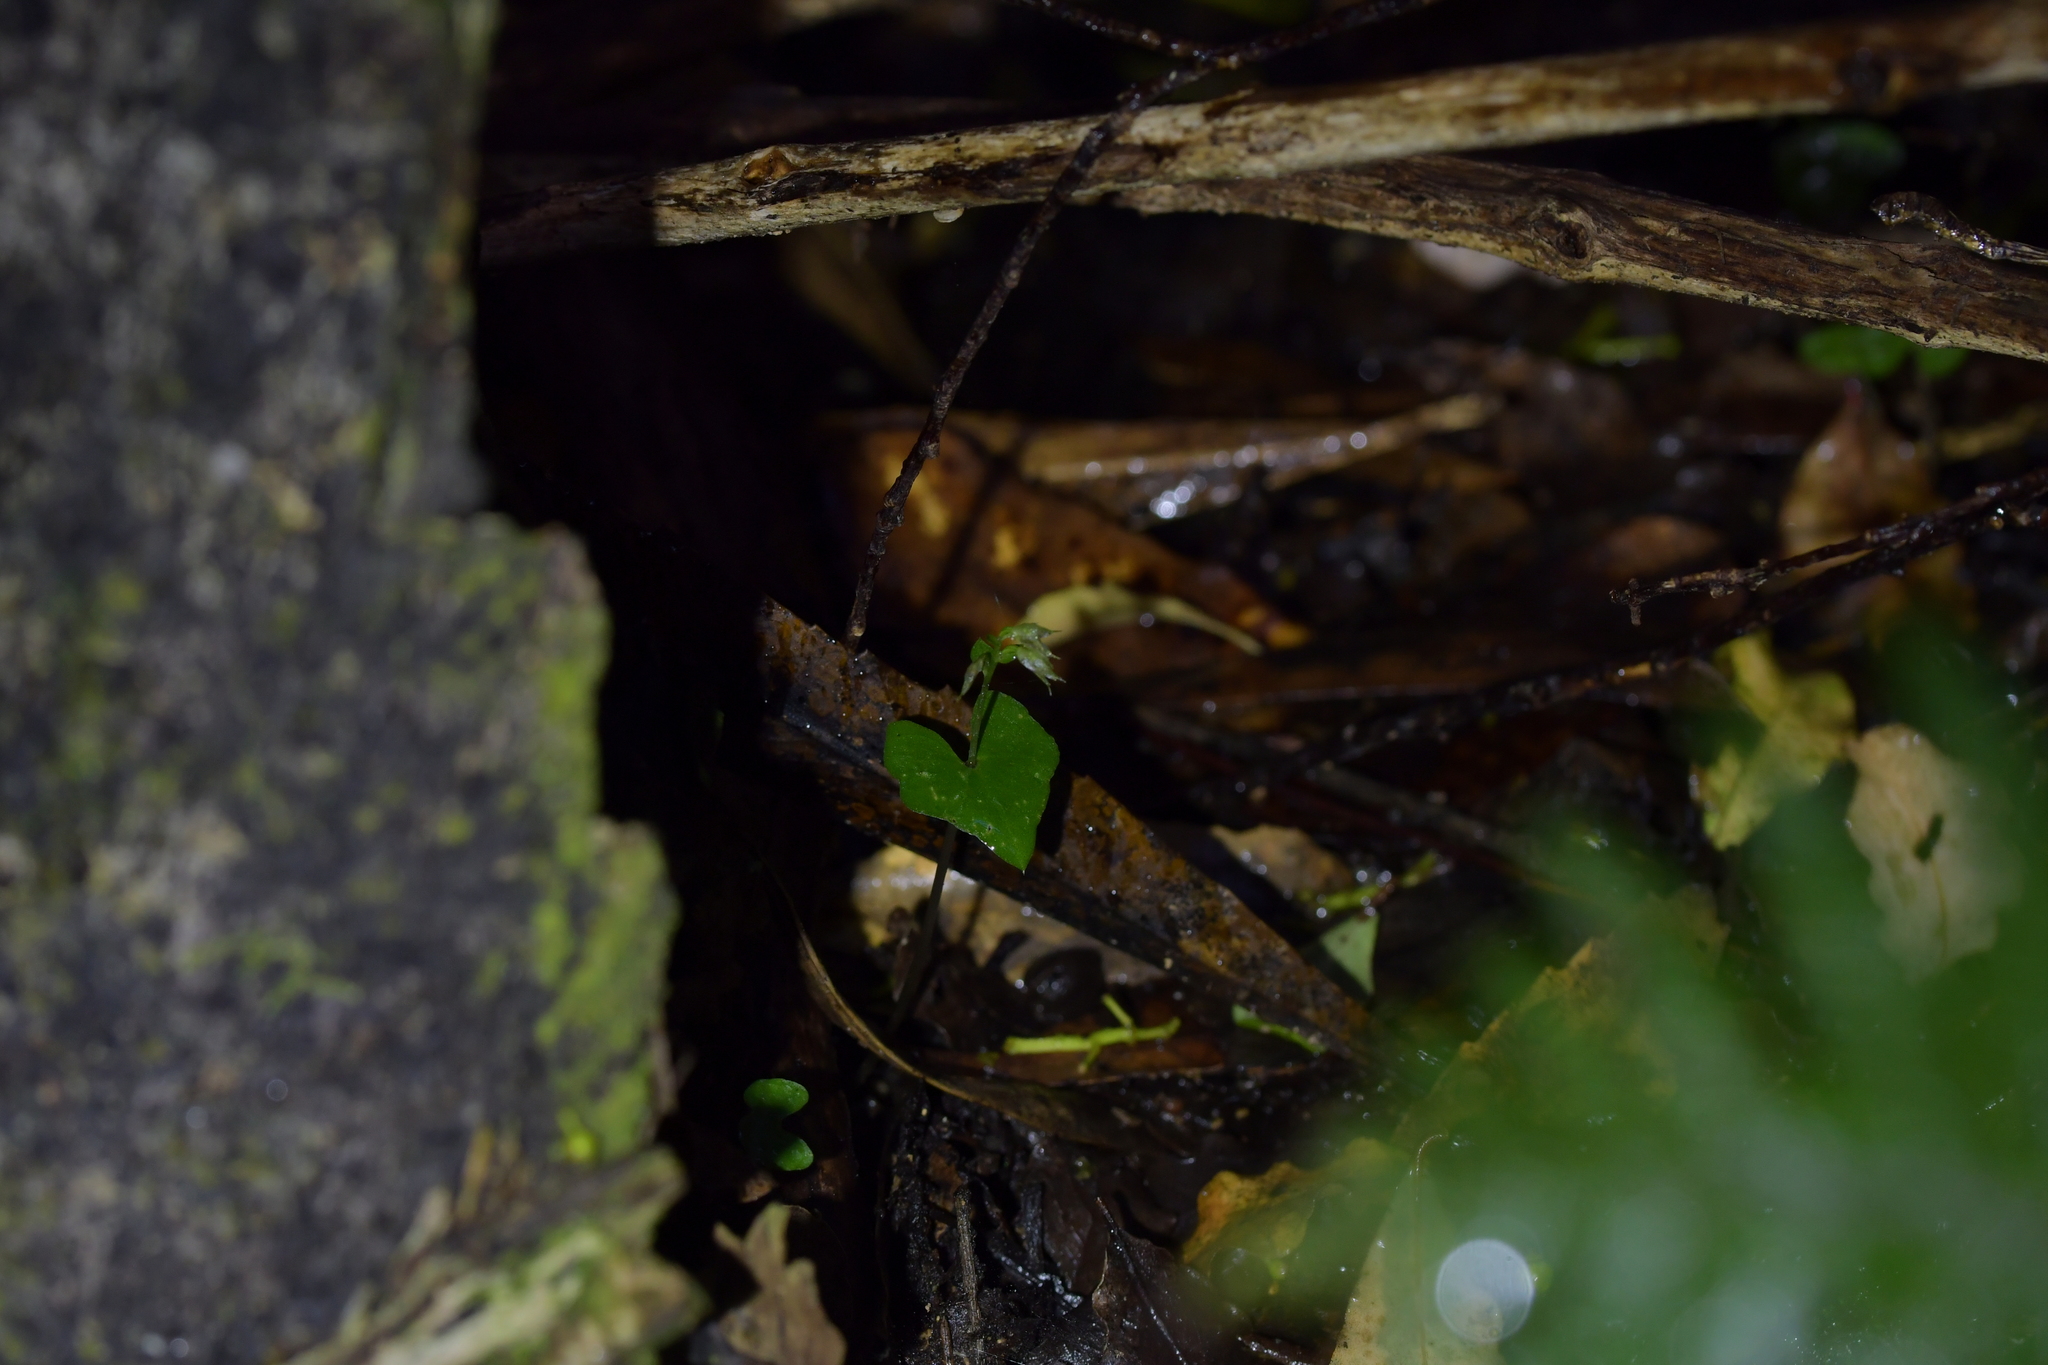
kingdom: Plantae
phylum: Tracheophyta
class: Liliopsida
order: Asparagales
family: Orchidaceae
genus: Acianthus
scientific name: Acianthus sinclairii
